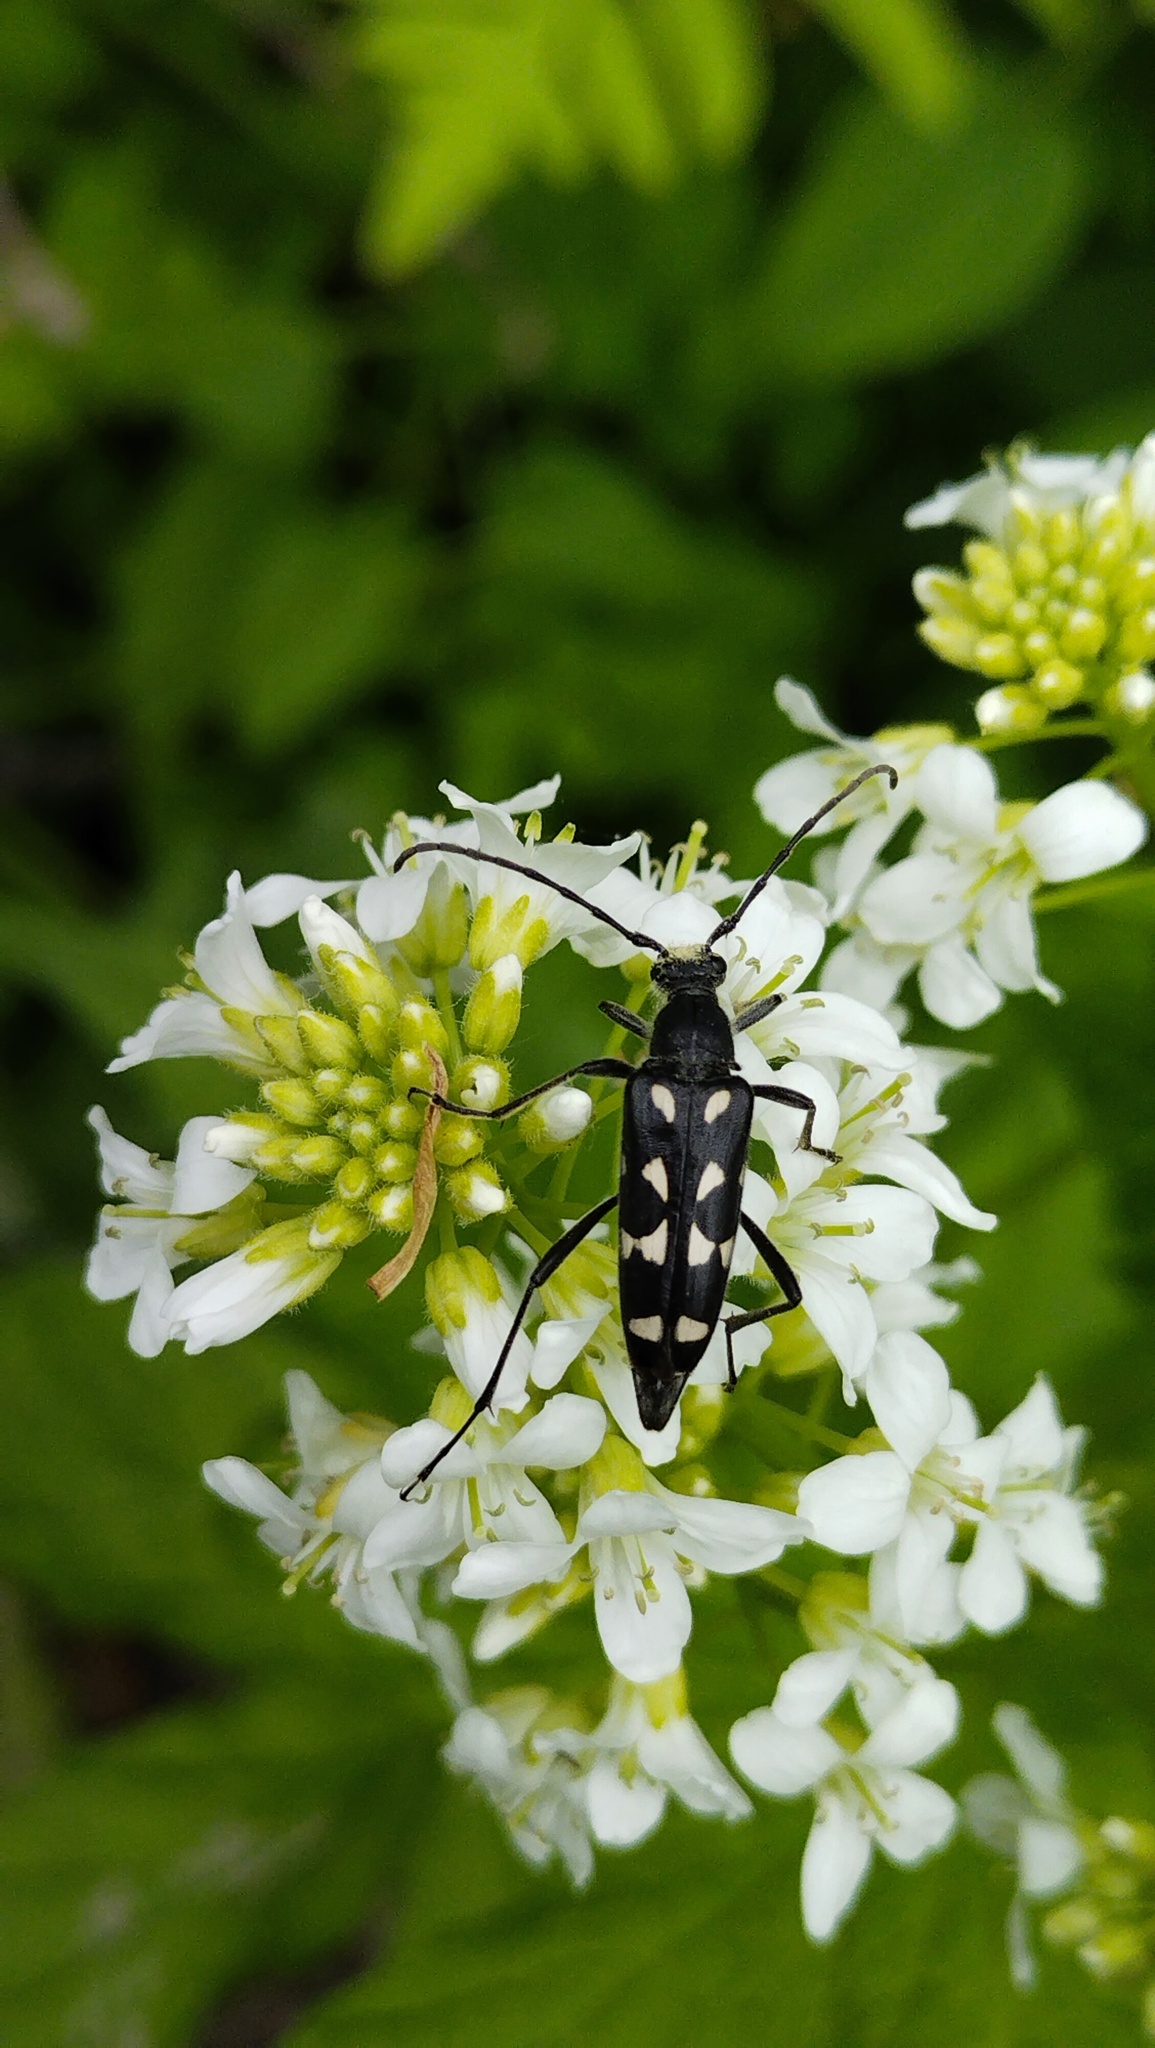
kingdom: Animalia
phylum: Arthropoda
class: Insecta
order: Coleoptera
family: Cerambycidae
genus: Leptura
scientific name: Leptura duodecimguttata
